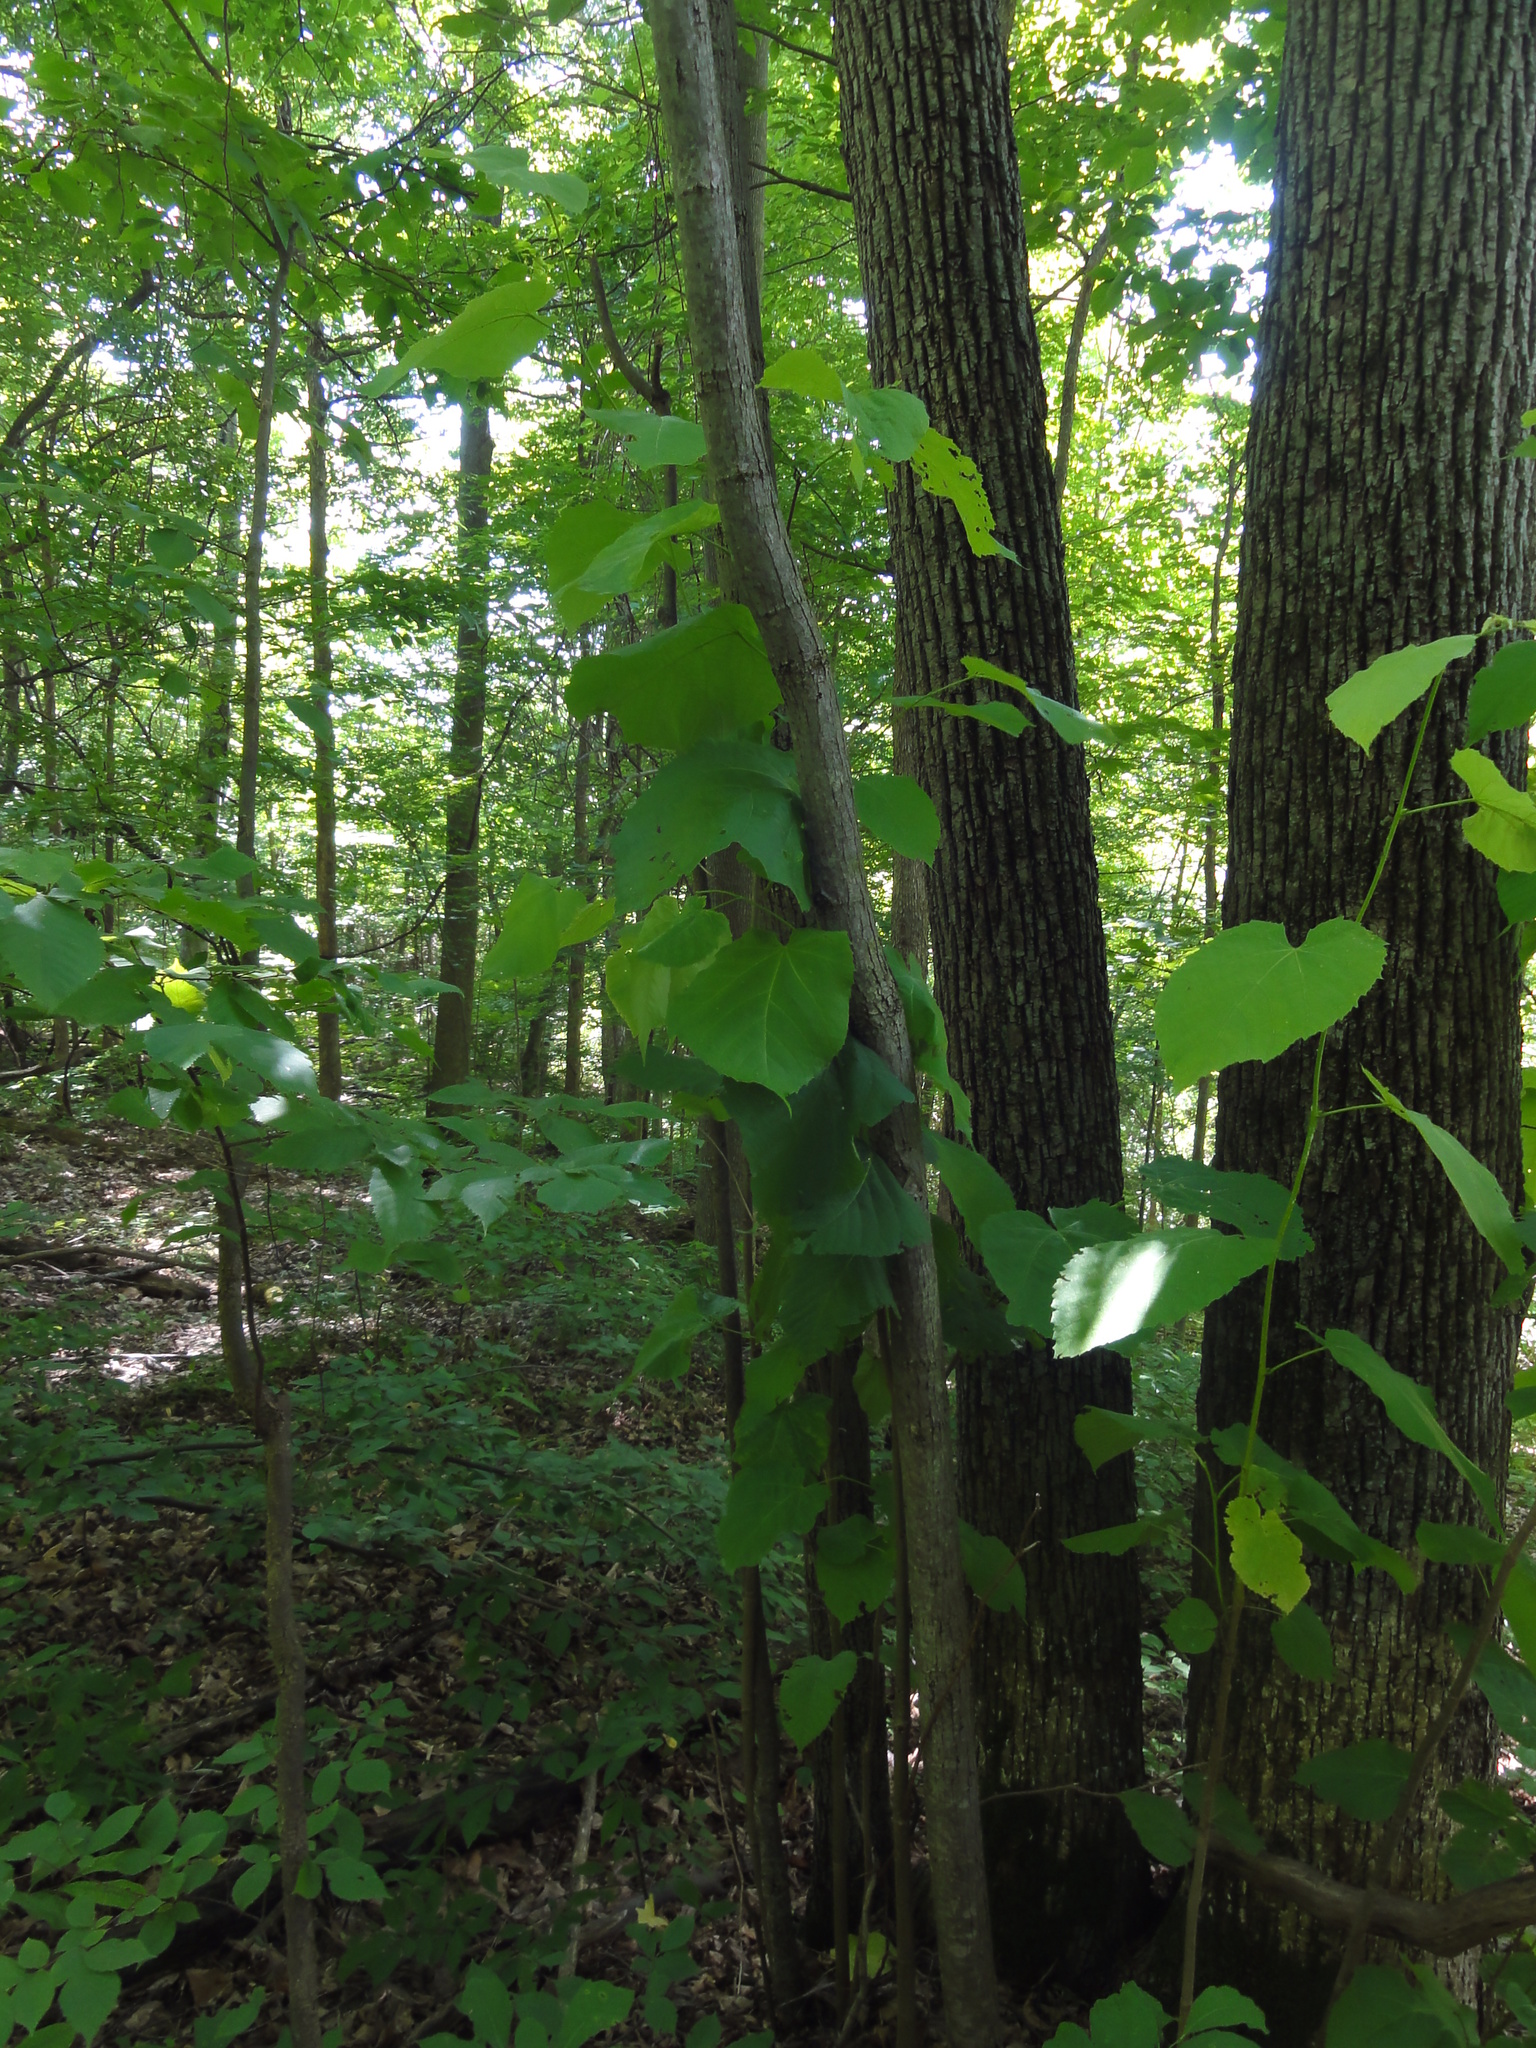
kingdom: Plantae
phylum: Tracheophyta
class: Magnoliopsida
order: Malvales
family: Malvaceae
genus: Tilia
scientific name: Tilia americana
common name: Basswood
